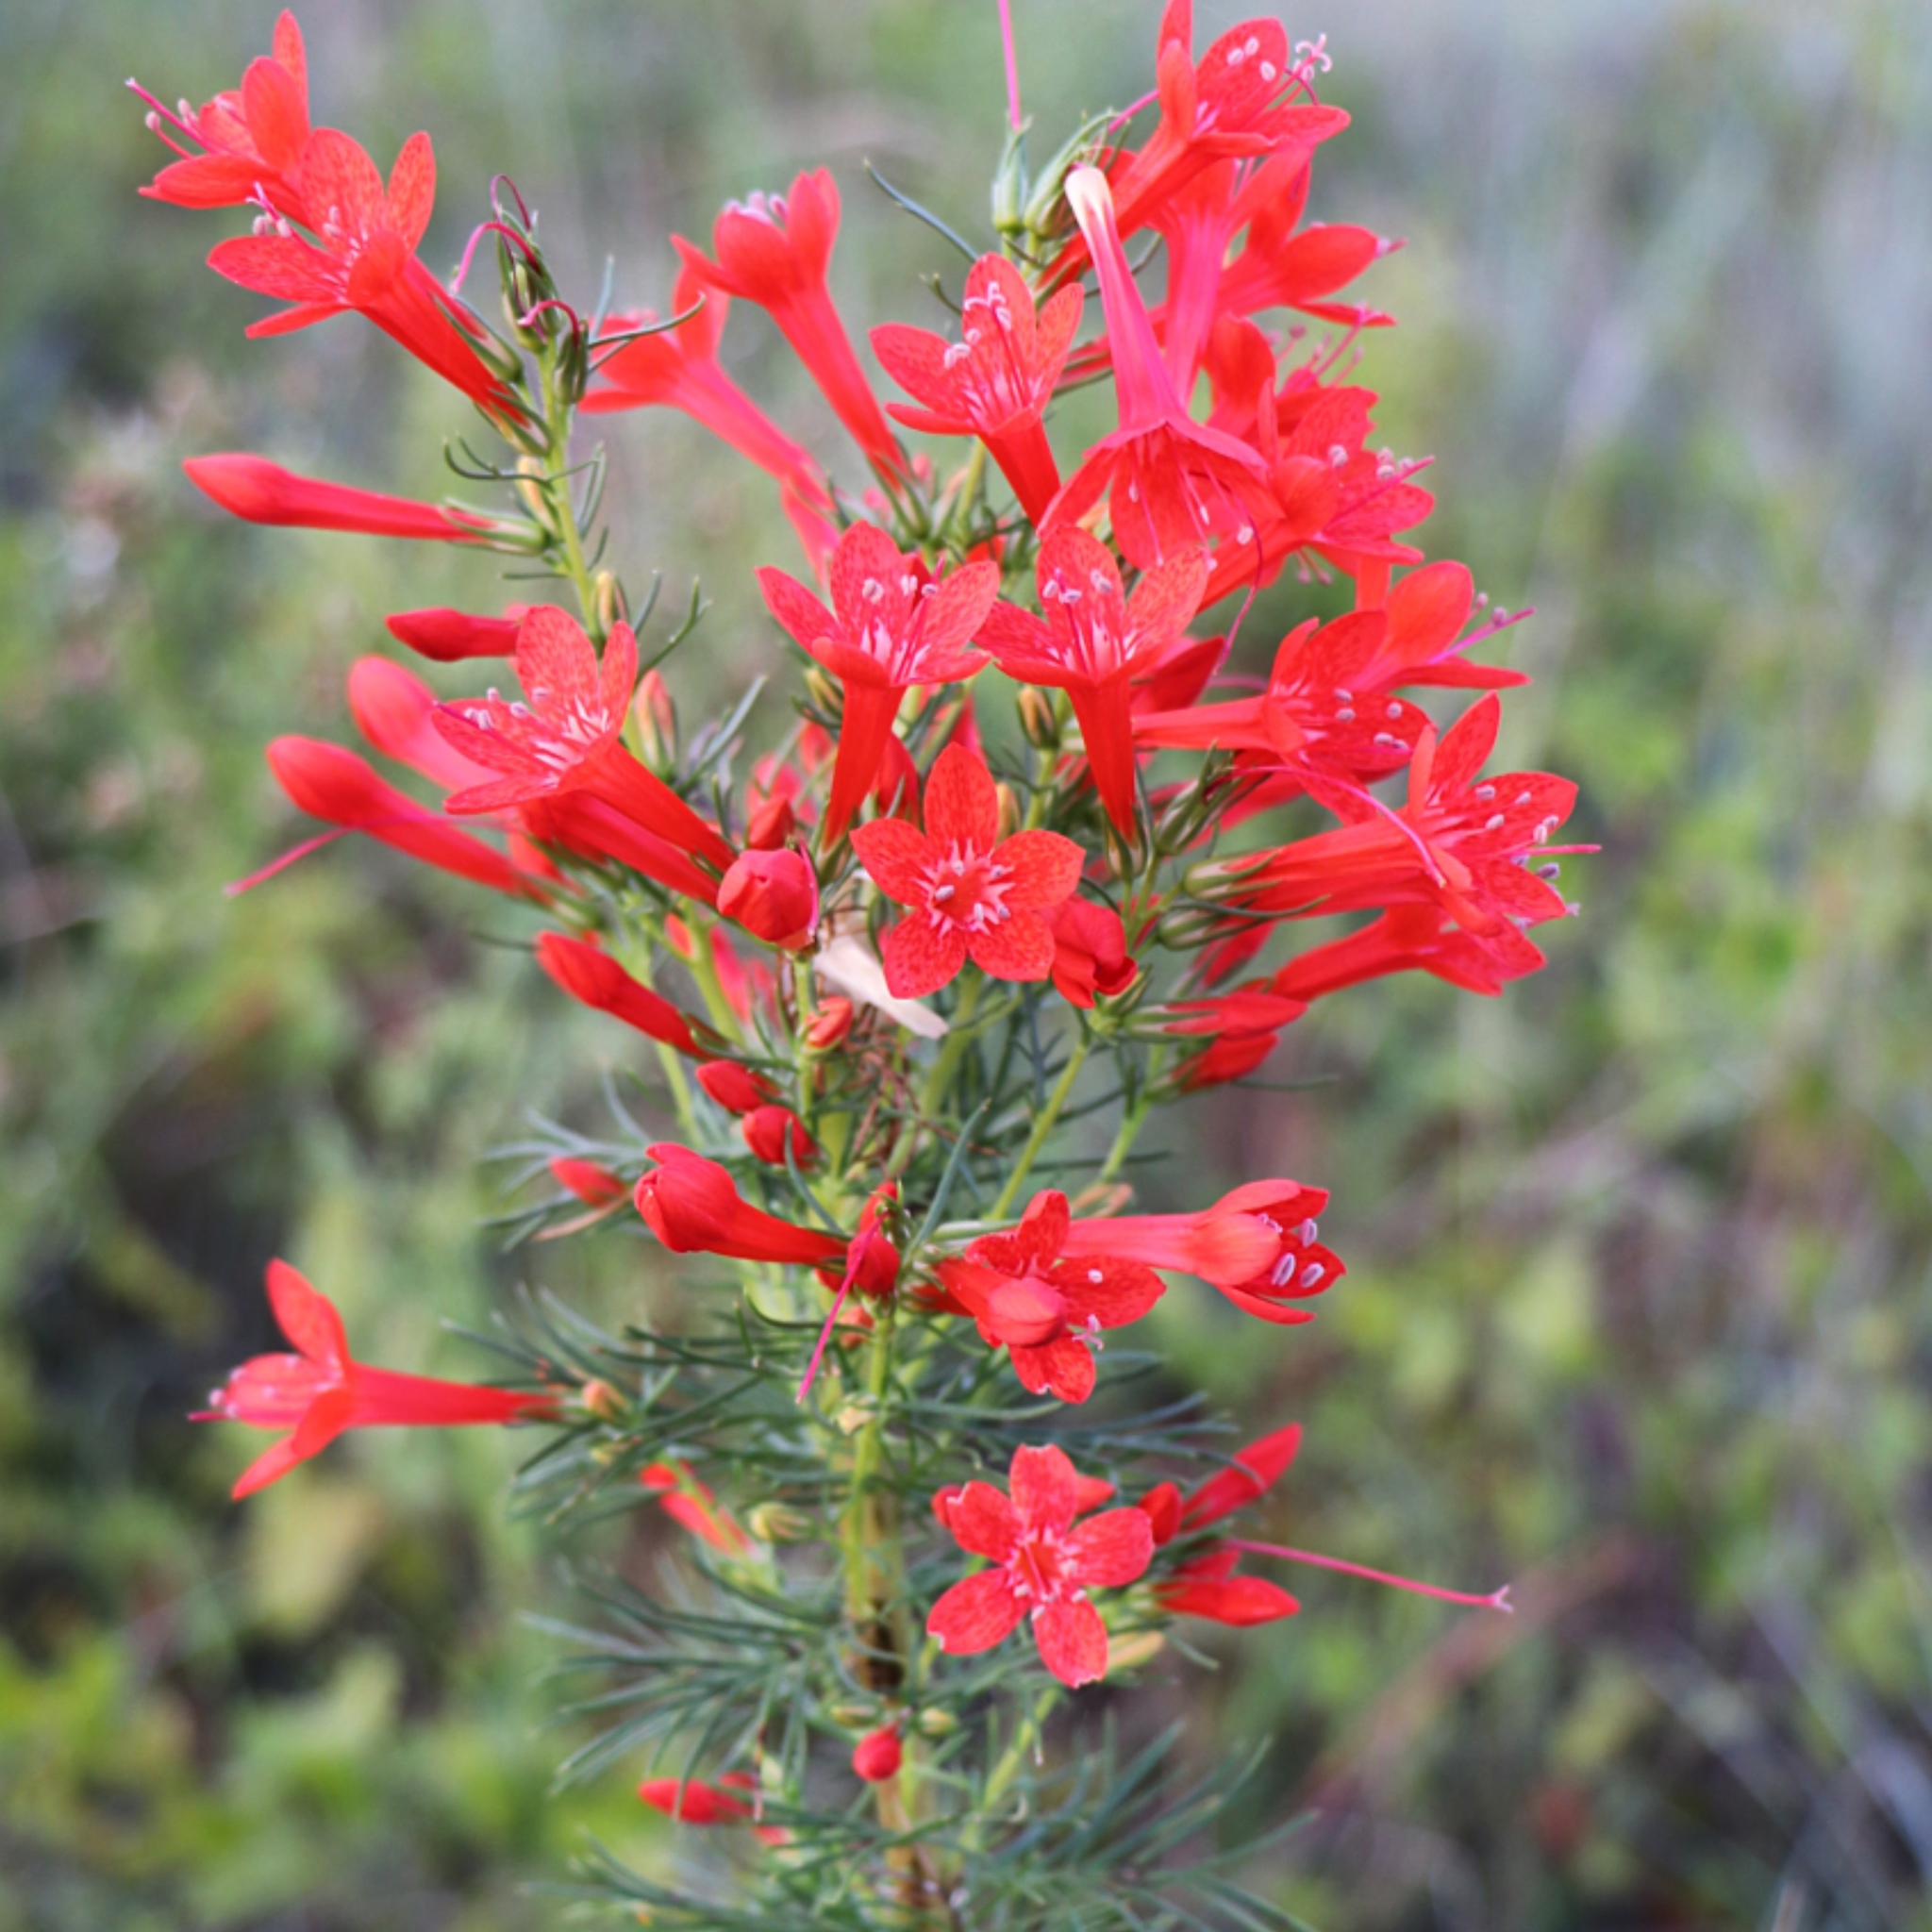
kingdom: Plantae
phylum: Tracheophyta
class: Magnoliopsida
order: Ericales
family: Polemoniaceae
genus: Ipomopsis
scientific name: Ipomopsis rubra
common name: Skyrocket
